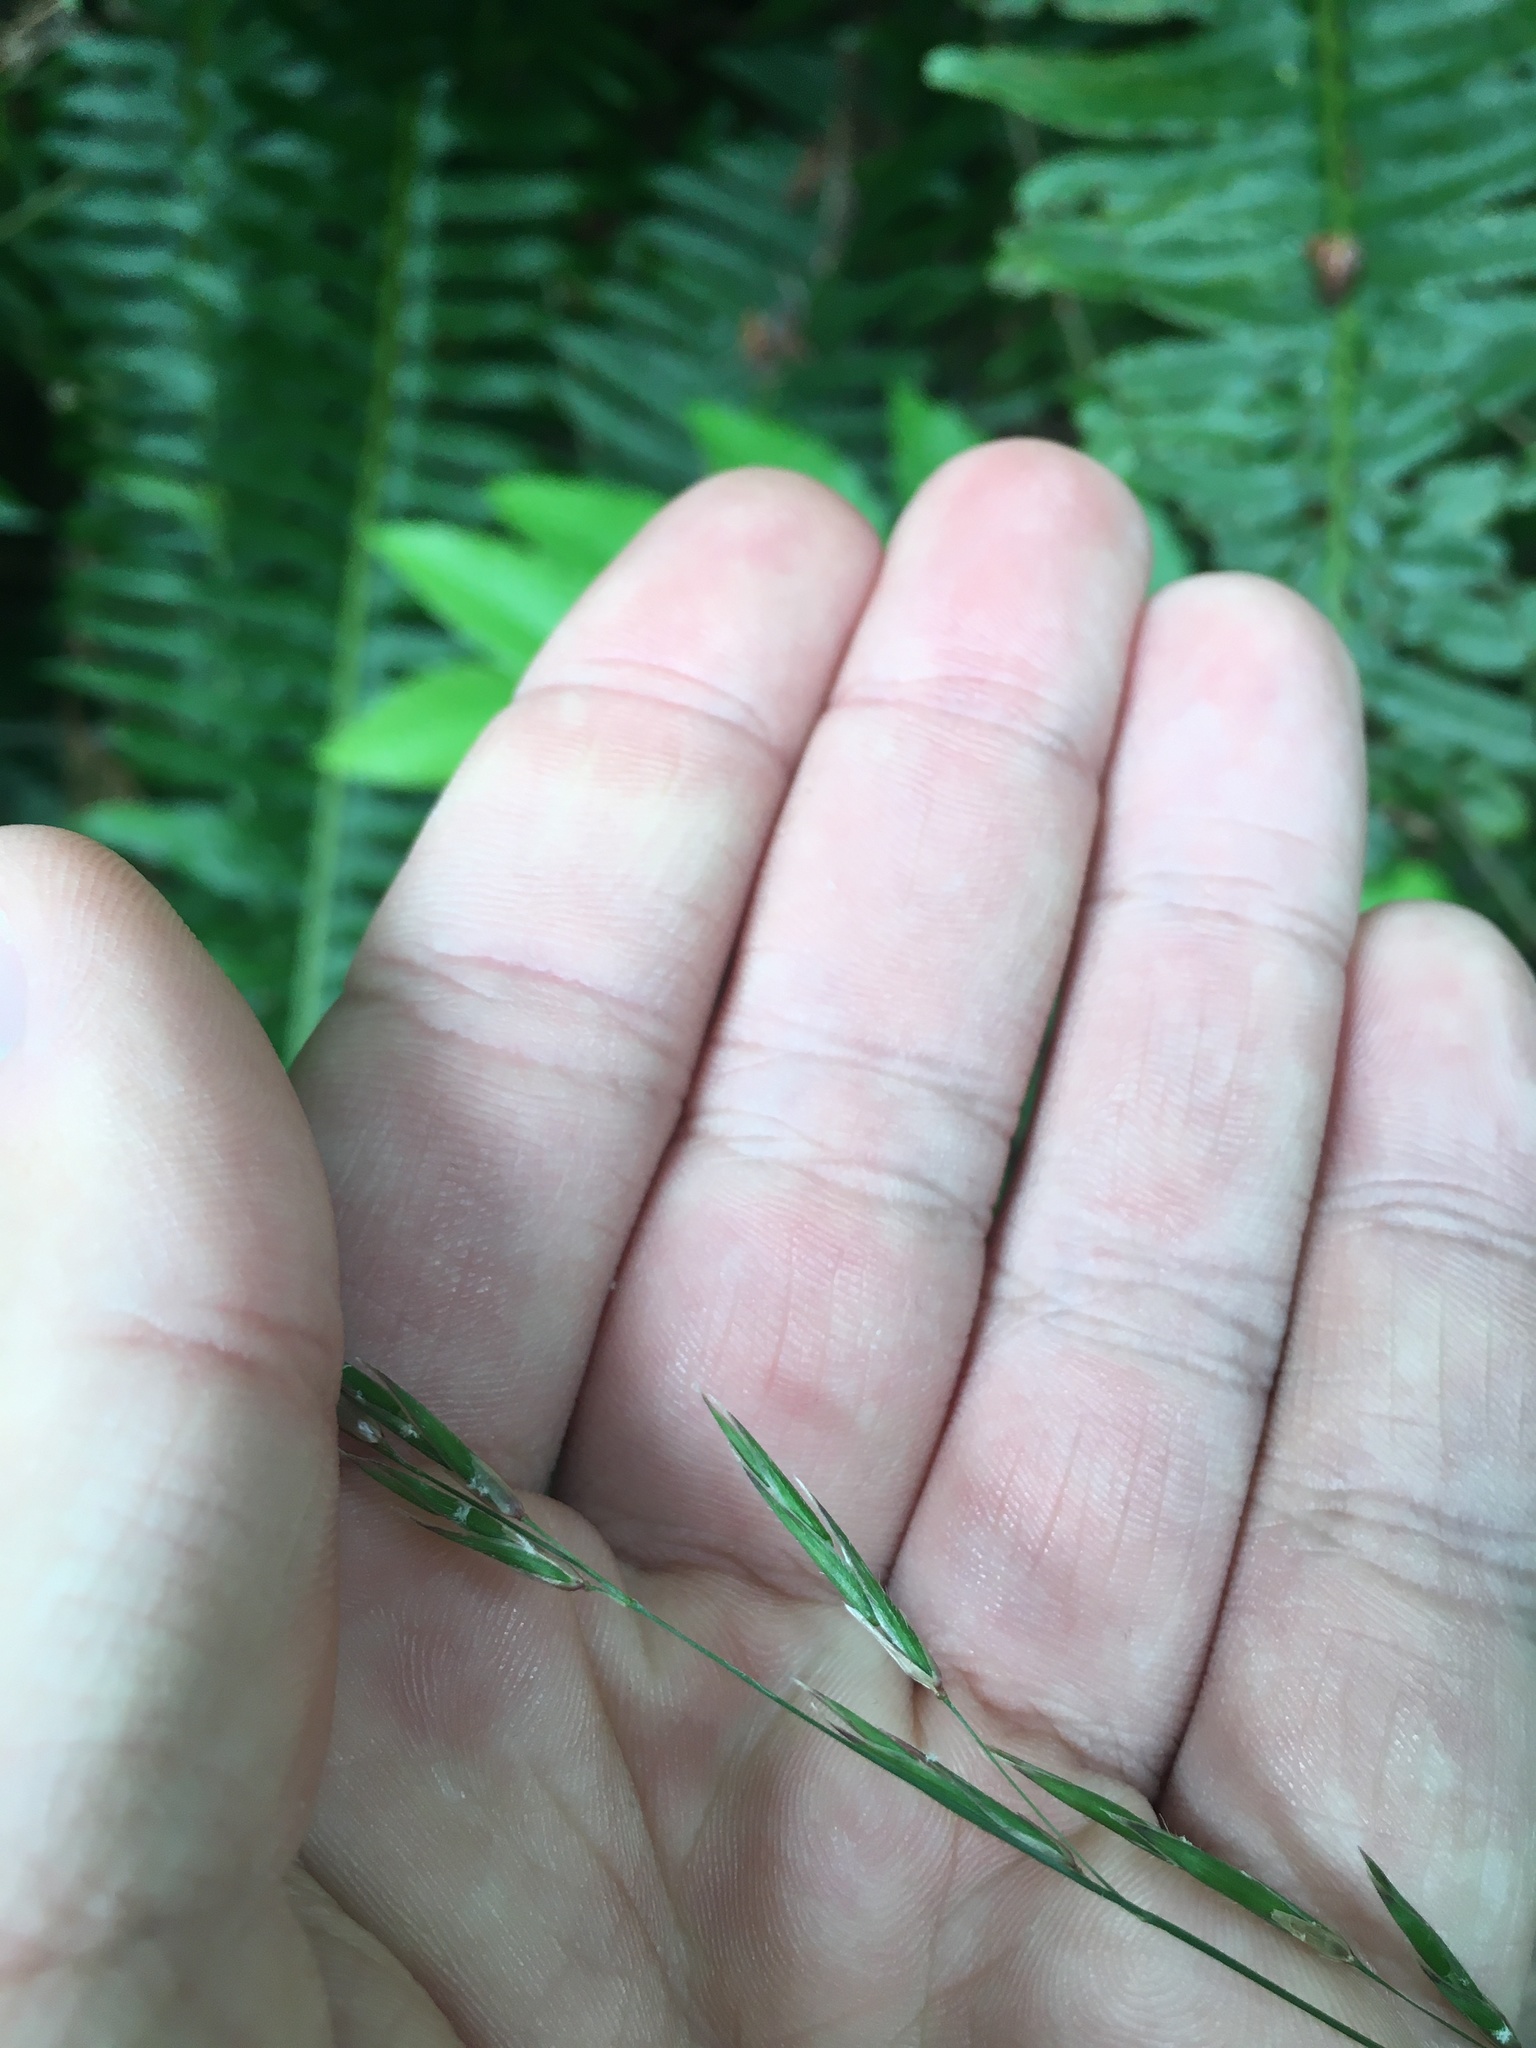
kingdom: Plantae
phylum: Tracheophyta
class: Liliopsida
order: Poales
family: Poaceae
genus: Melica
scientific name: Melica subulata
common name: Tapered oniongrass
